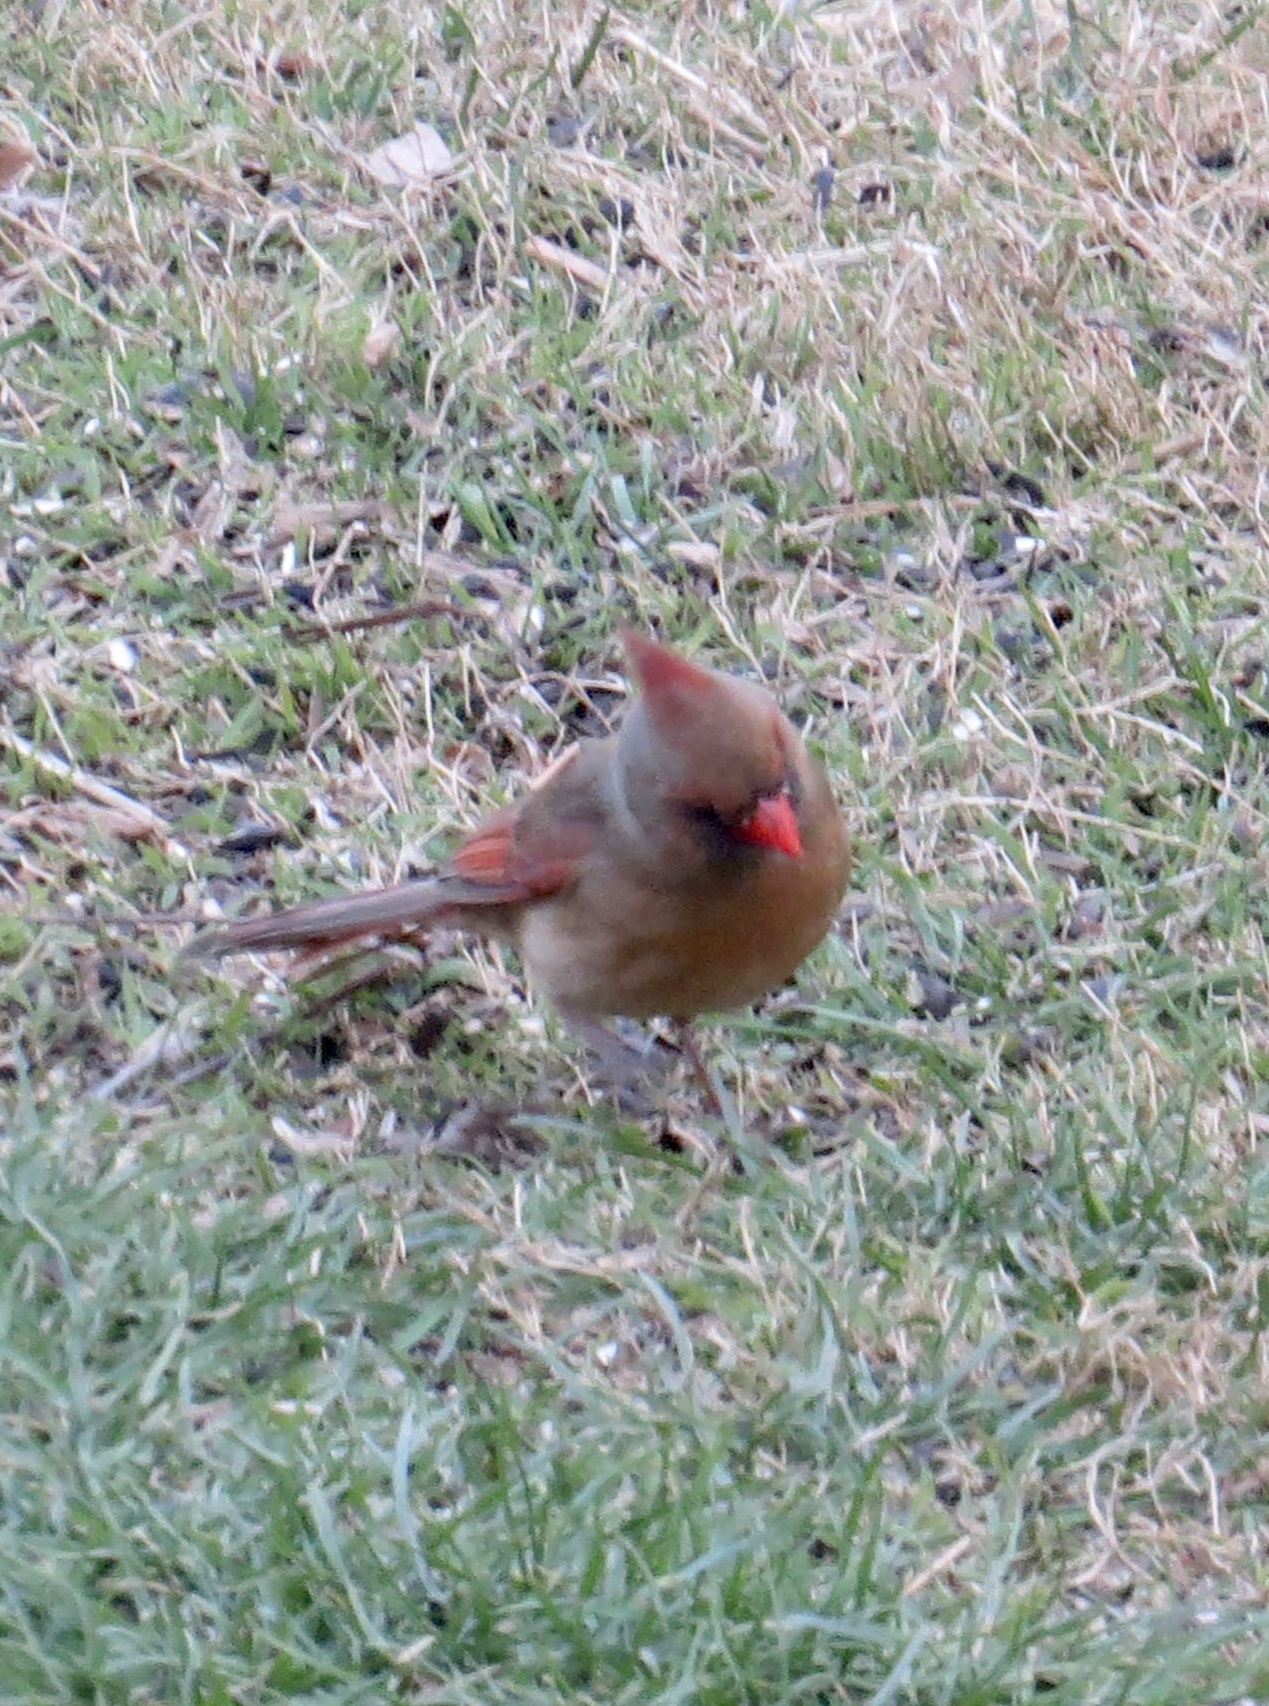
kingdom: Animalia
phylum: Chordata
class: Aves
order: Passeriformes
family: Cardinalidae
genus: Cardinalis
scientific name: Cardinalis cardinalis
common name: Northern cardinal
